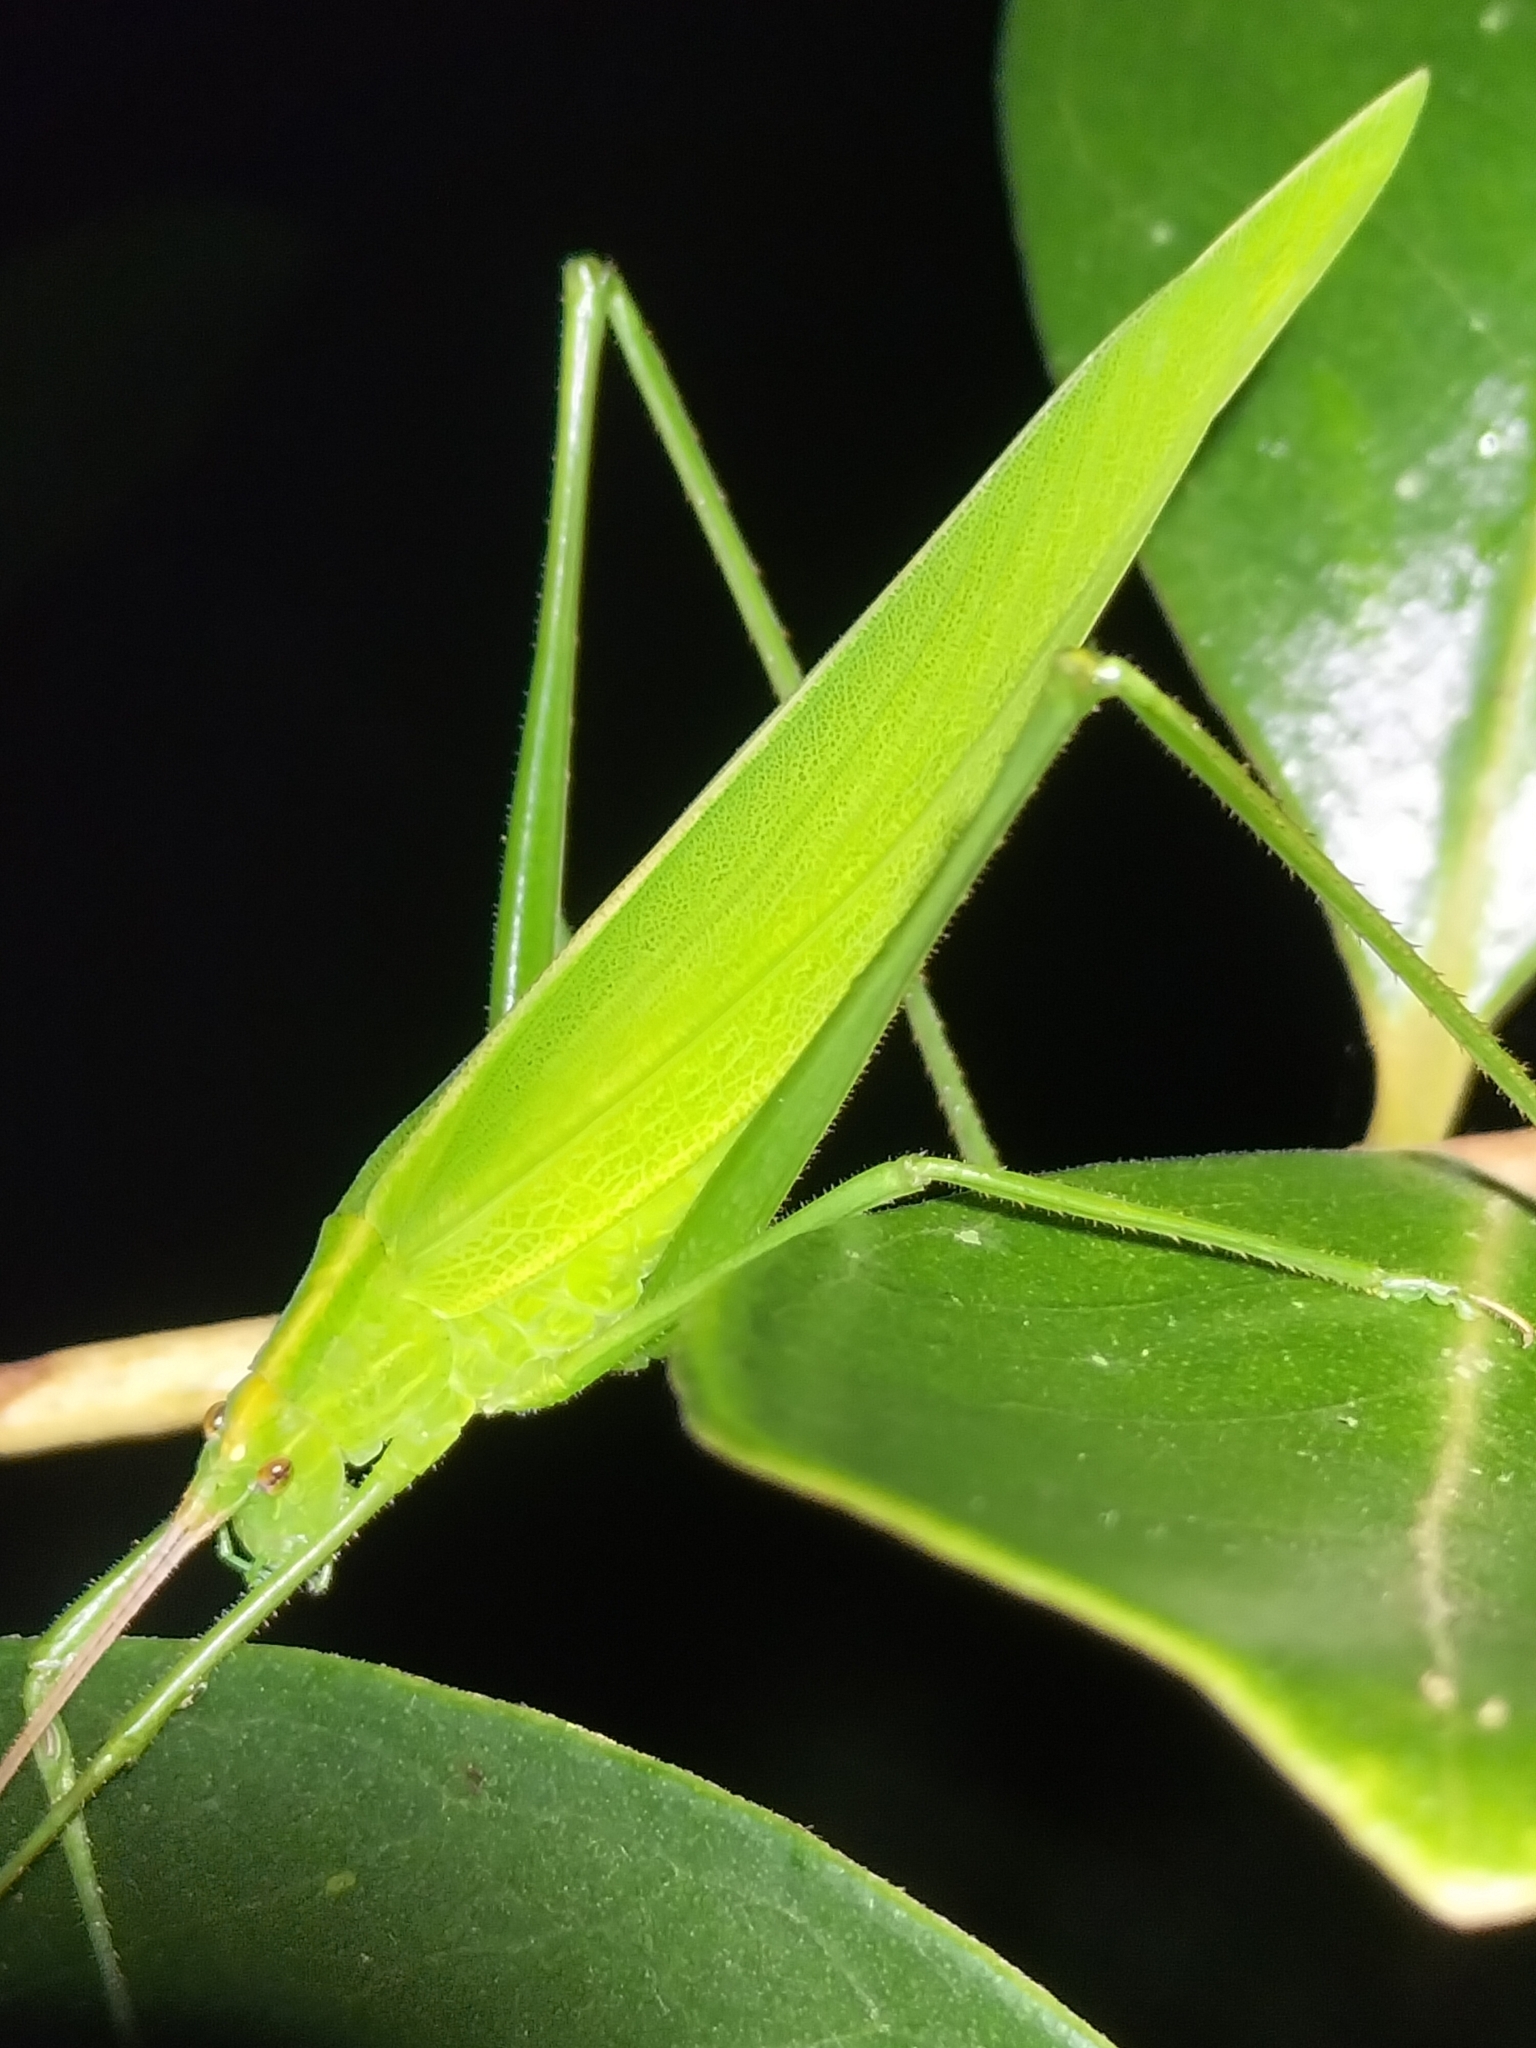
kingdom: Animalia
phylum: Arthropoda
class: Insecta
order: Orthoptera
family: Tettigoniidae
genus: Ducetia
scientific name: Ducetia antipoda
